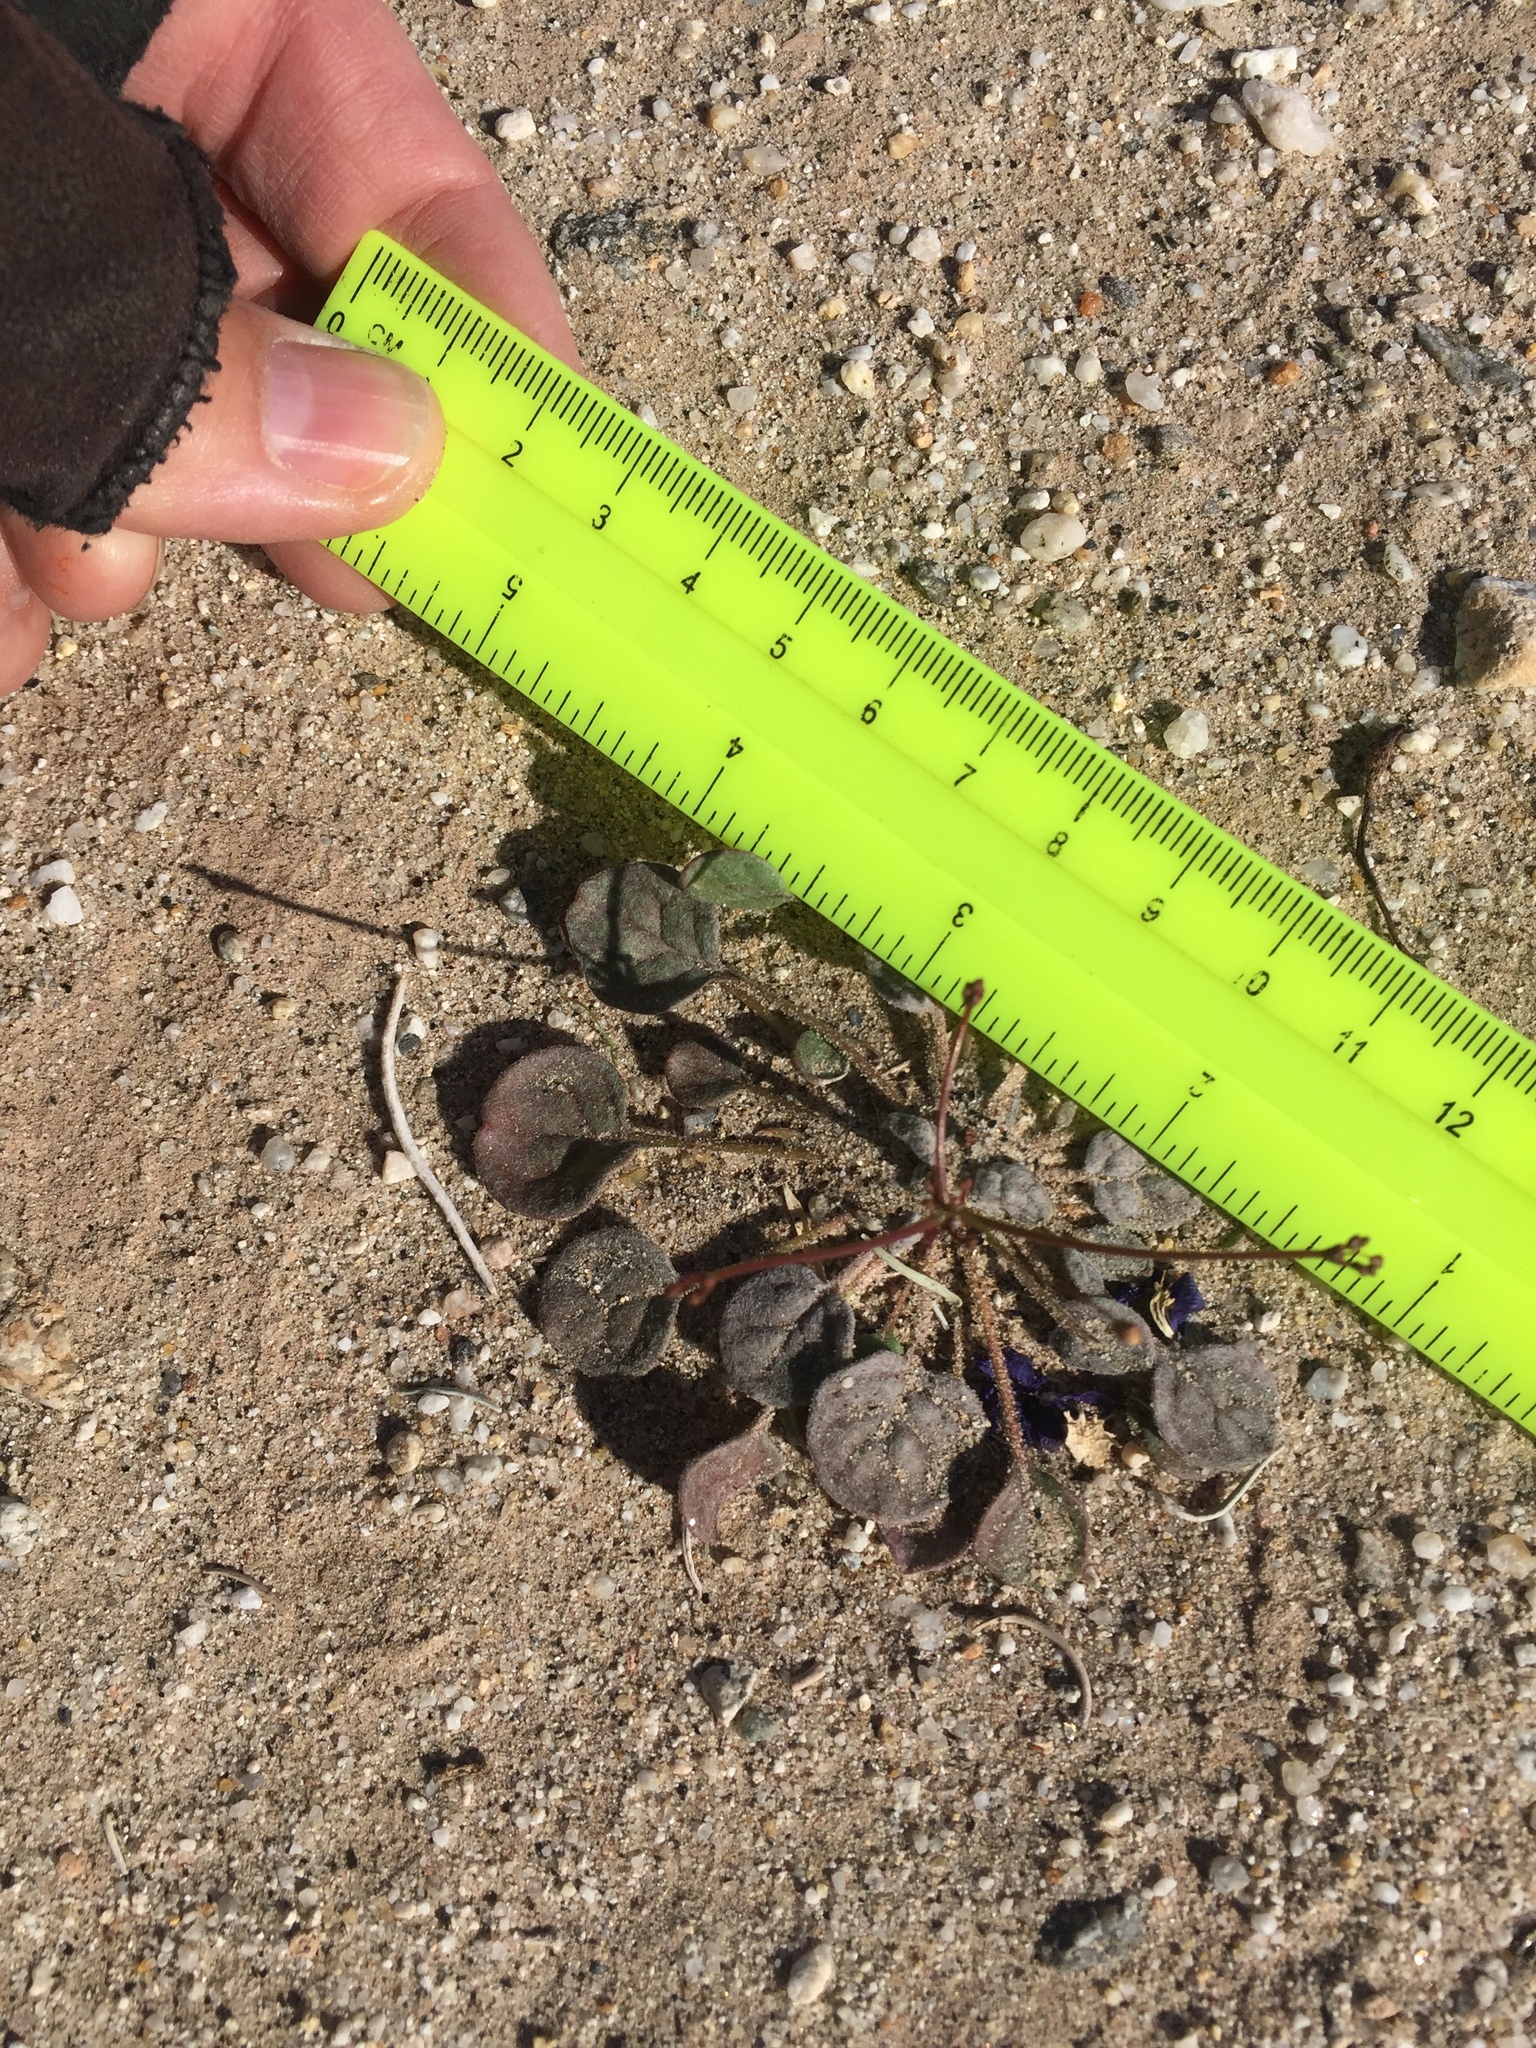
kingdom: Plantae
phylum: Tracheophyta
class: Magnoliopsida
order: Caryophyllales
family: Polygonaceae
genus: Eriogonum
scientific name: Eriogonum thomasii
